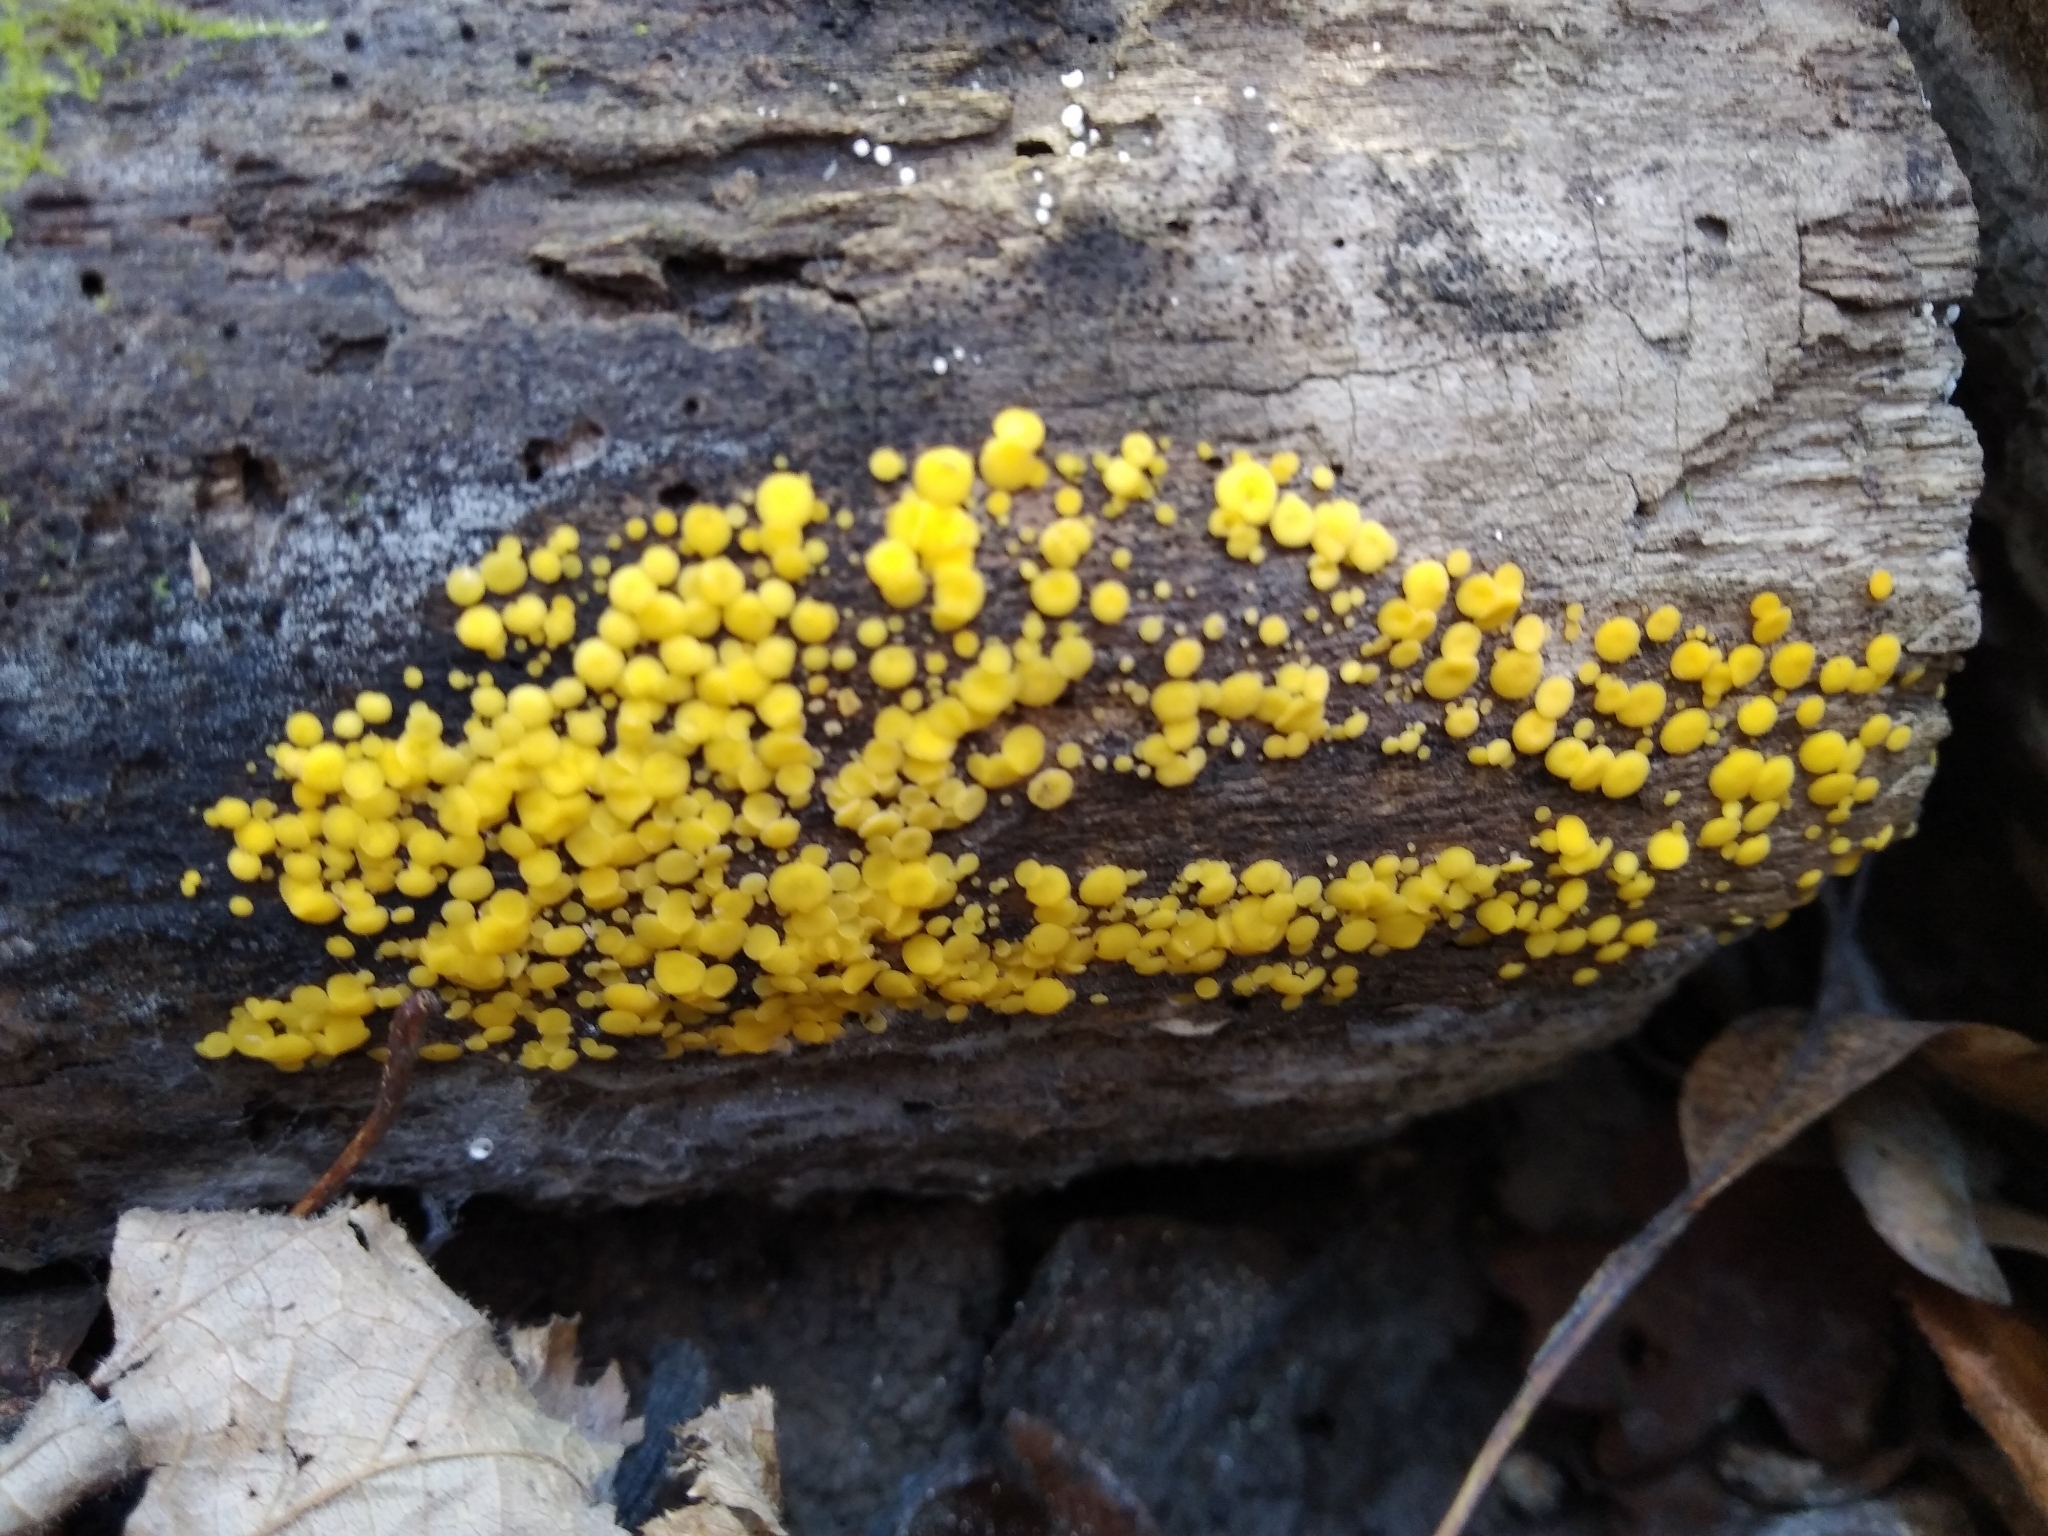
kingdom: Fungi
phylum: Ascomycota
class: Leotiomycetes
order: Helotiales
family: Pezizellaceae
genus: Calycina
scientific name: Calycina citrina
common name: Yellow fairy cups
